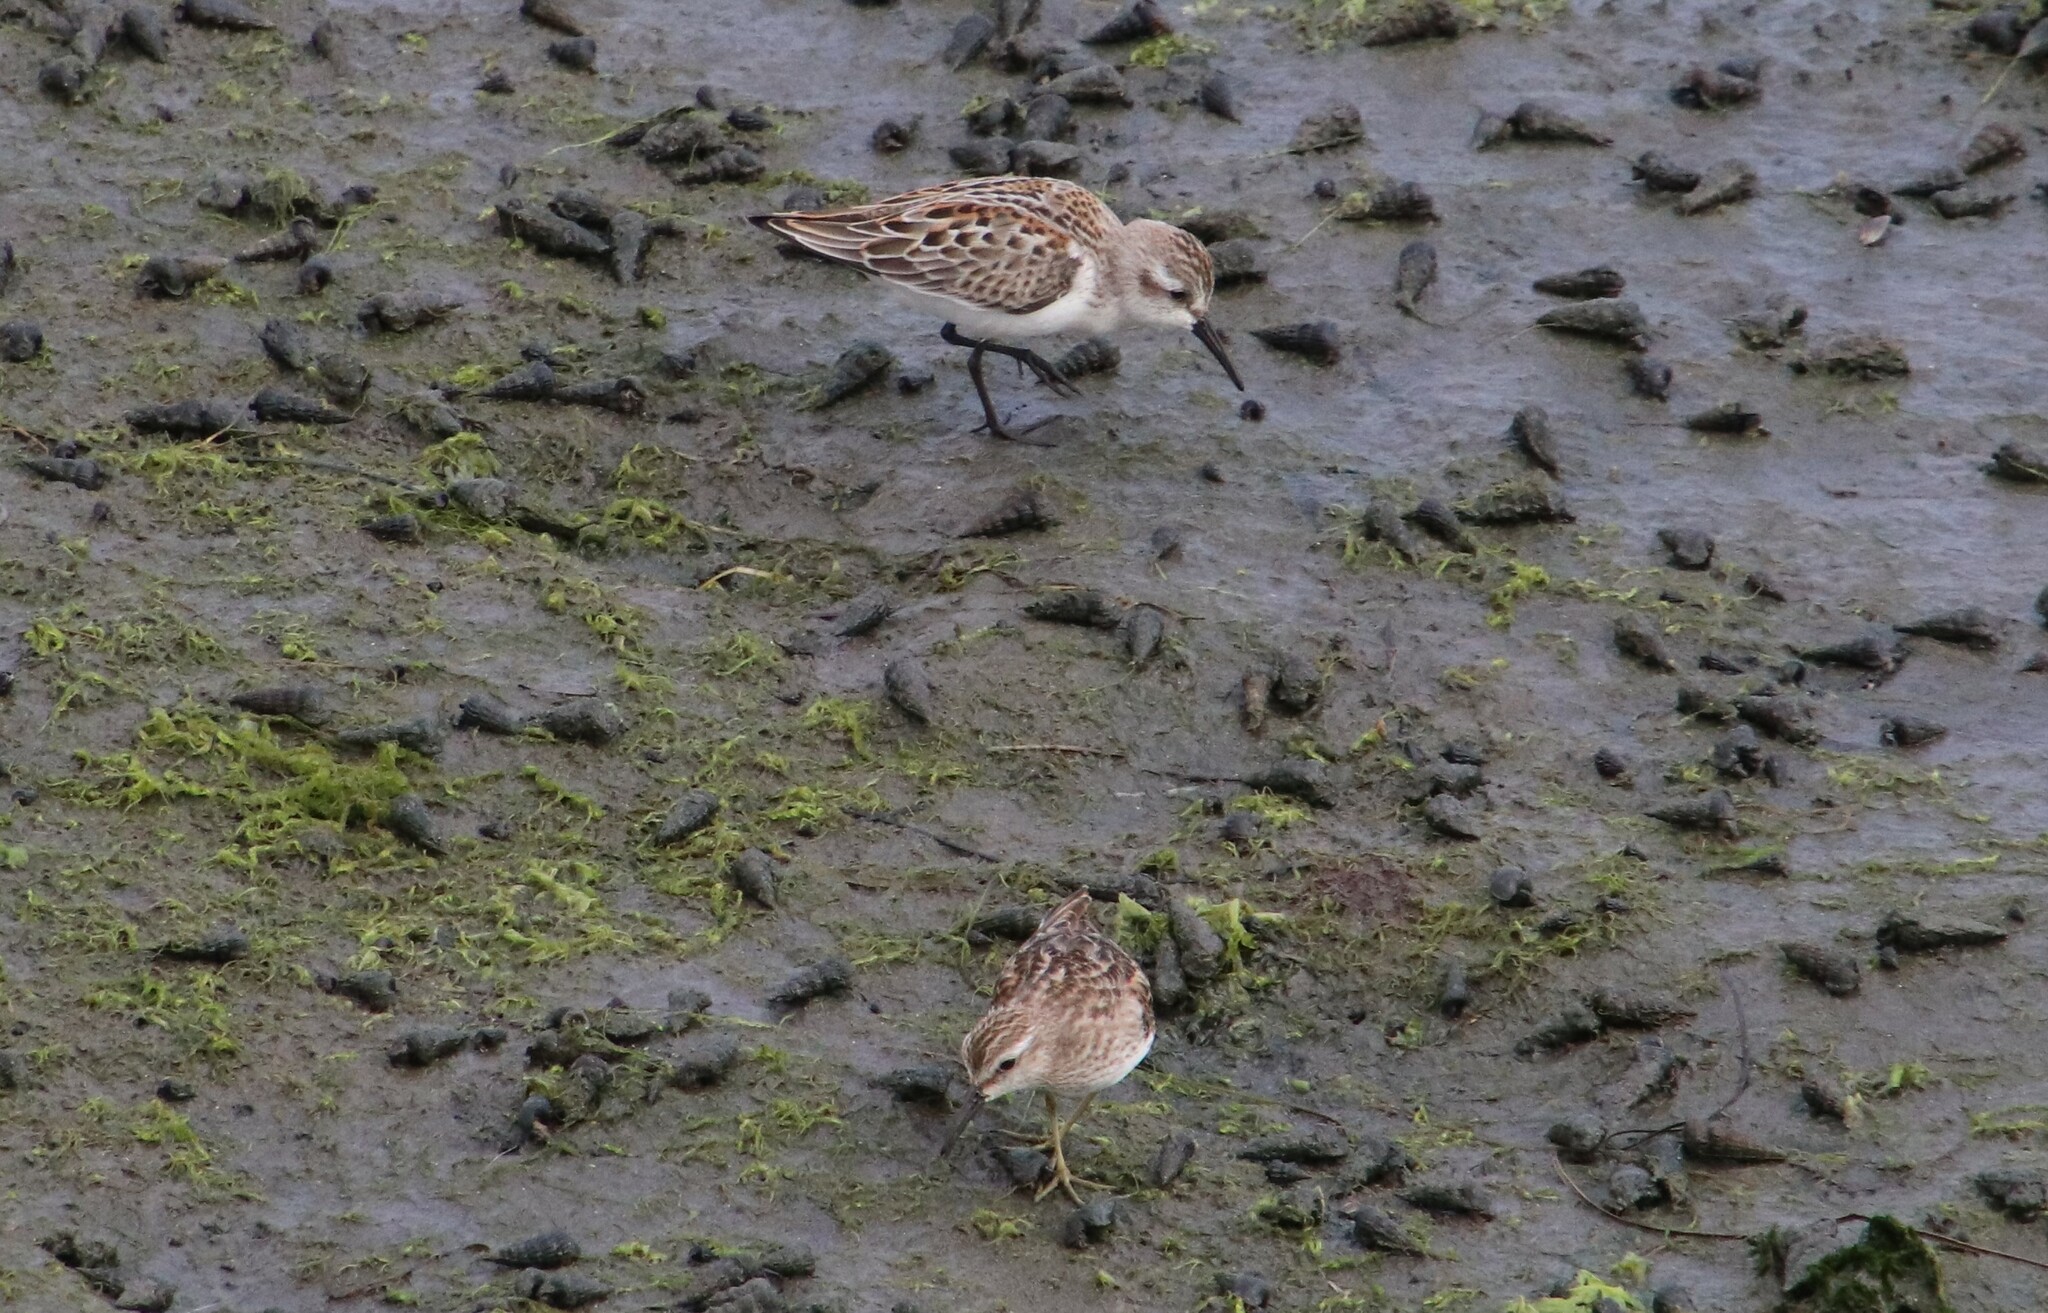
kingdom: Animalia
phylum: Chordata
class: Aves
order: Charadriiformes
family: Scolopacidae
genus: Calidris
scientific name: Calidris mauri
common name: Western sandpiper
